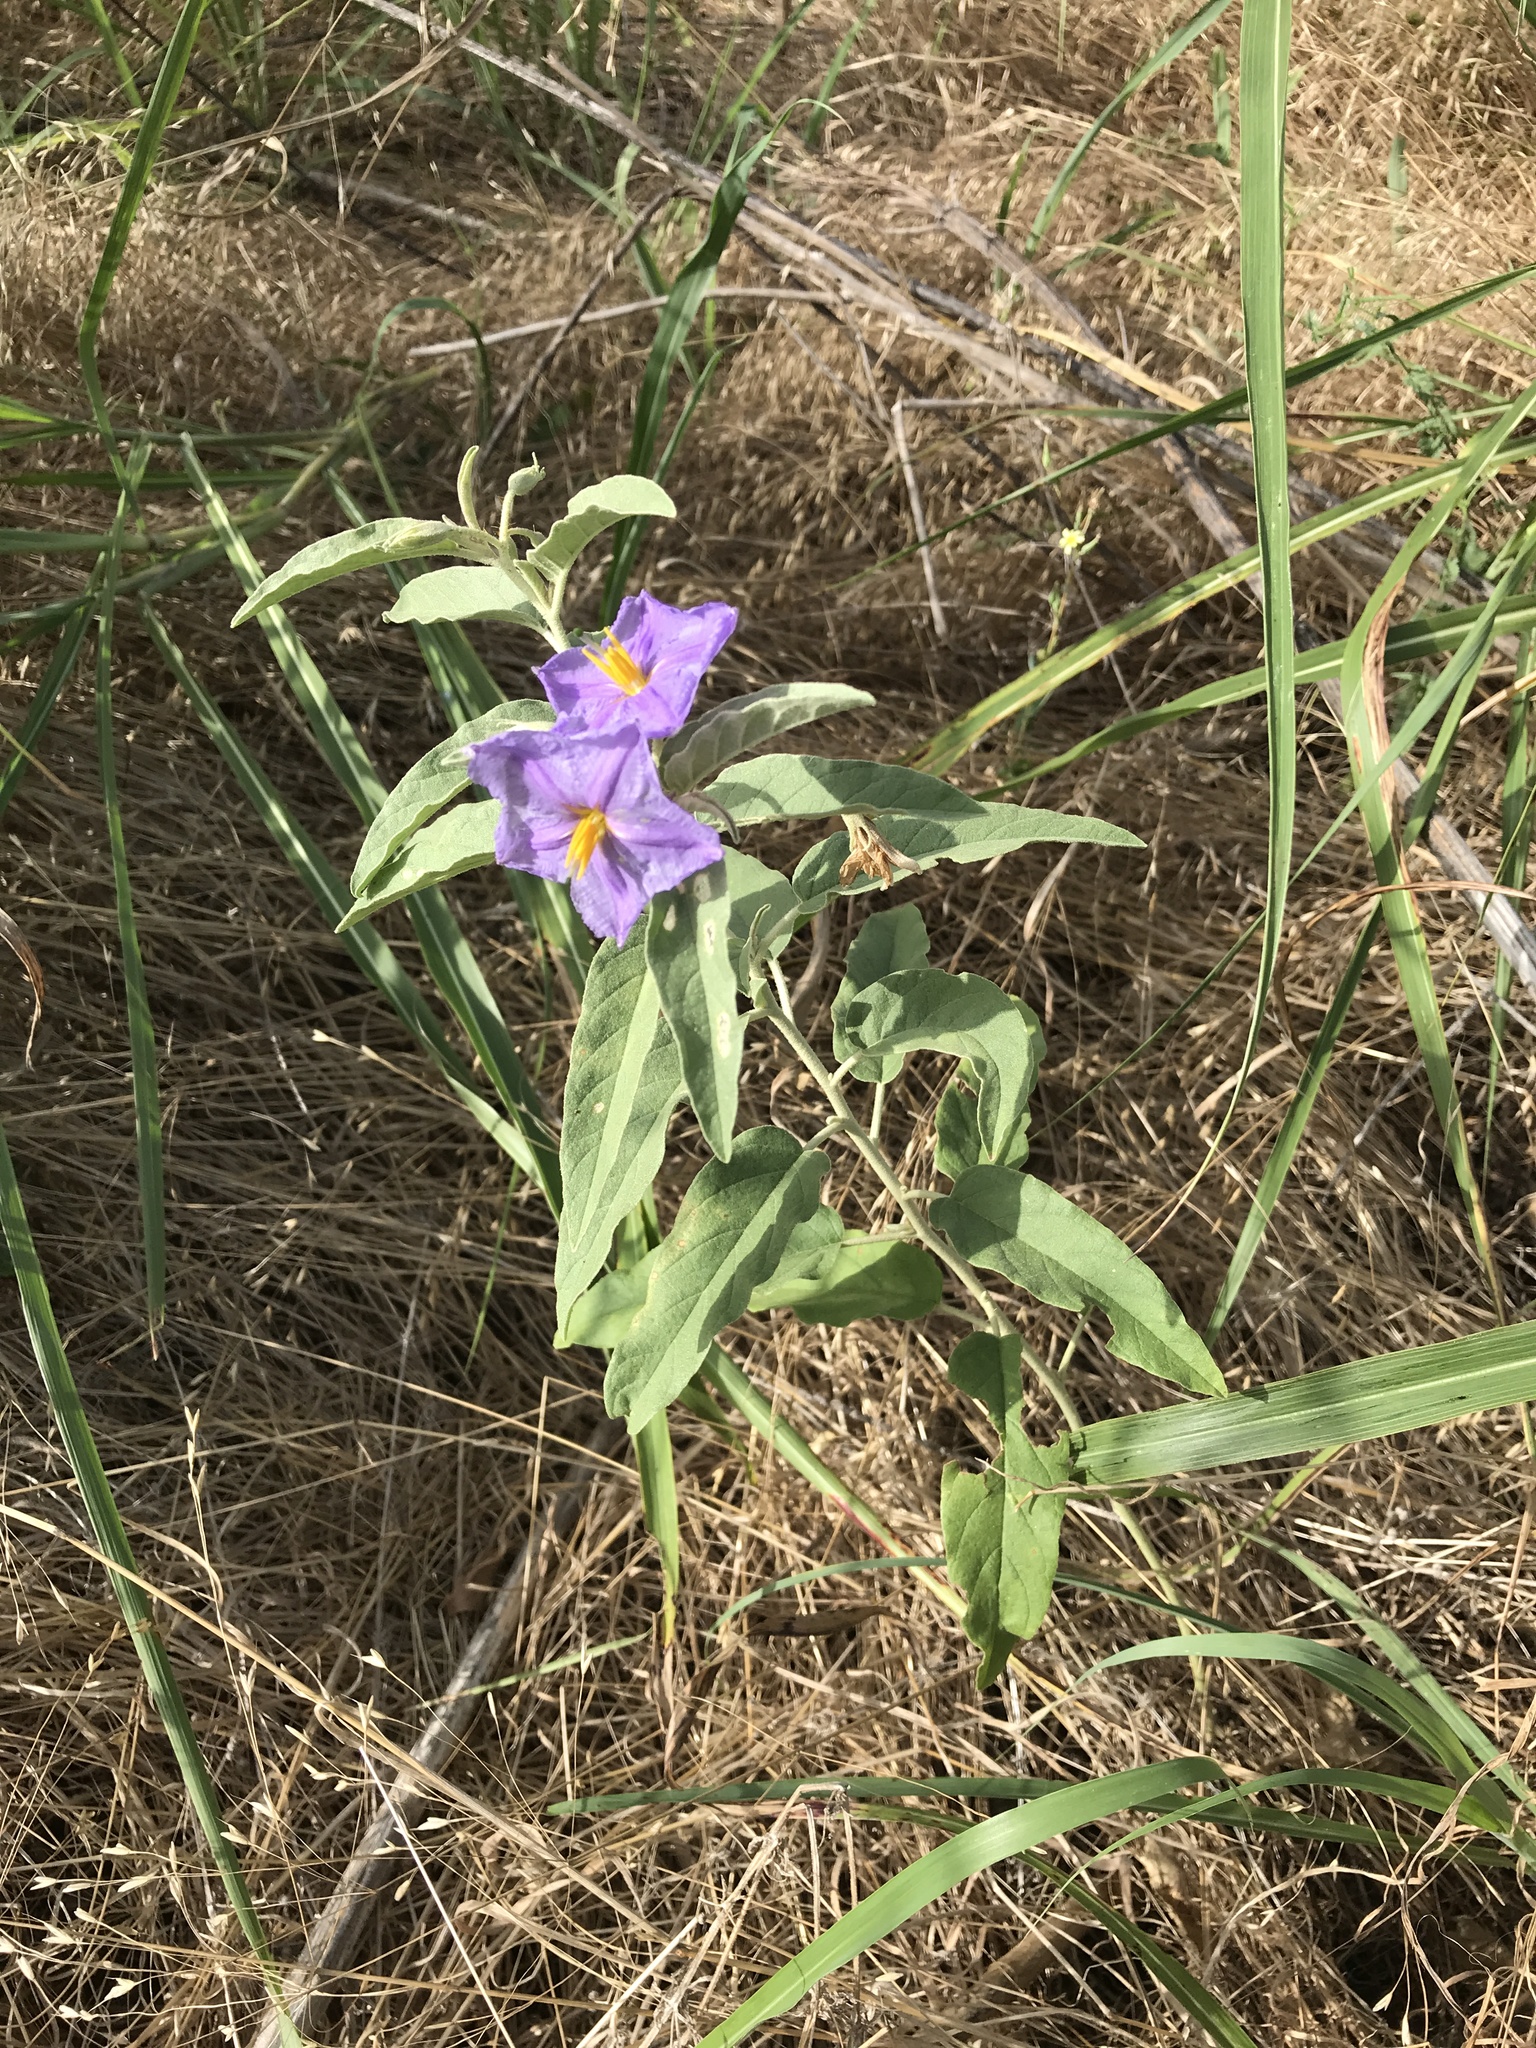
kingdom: Plantae
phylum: Tracheophyta
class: Magnoliopsida
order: Solanales
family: Solanaceae
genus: Solanum
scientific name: Solanum elaeagnifolium
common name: Silverleaf nightshade
